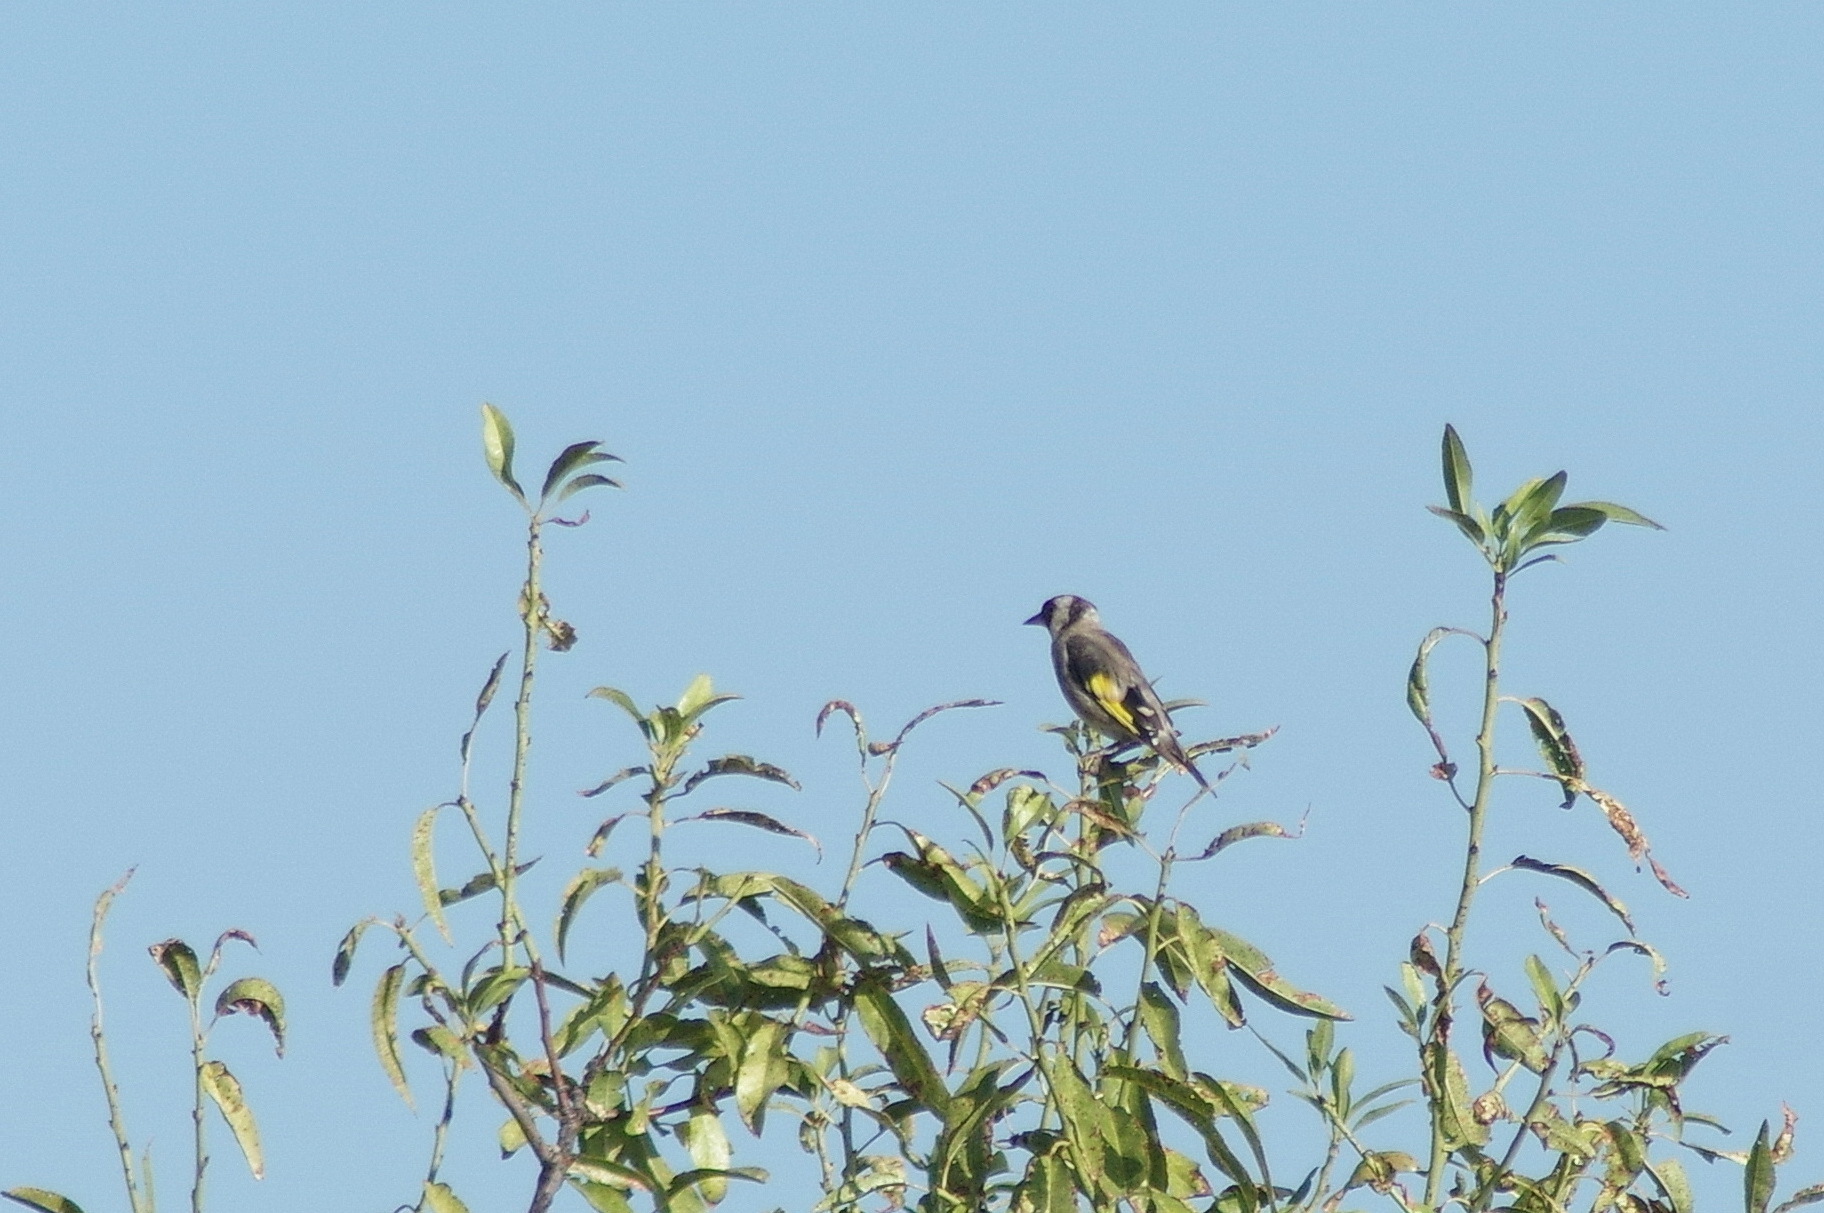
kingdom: Animalia
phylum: Chordata
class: Aves
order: Passeriformes
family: Fringillidae
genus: Carduelis
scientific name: Carduelis carduelis
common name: European goldfinch
